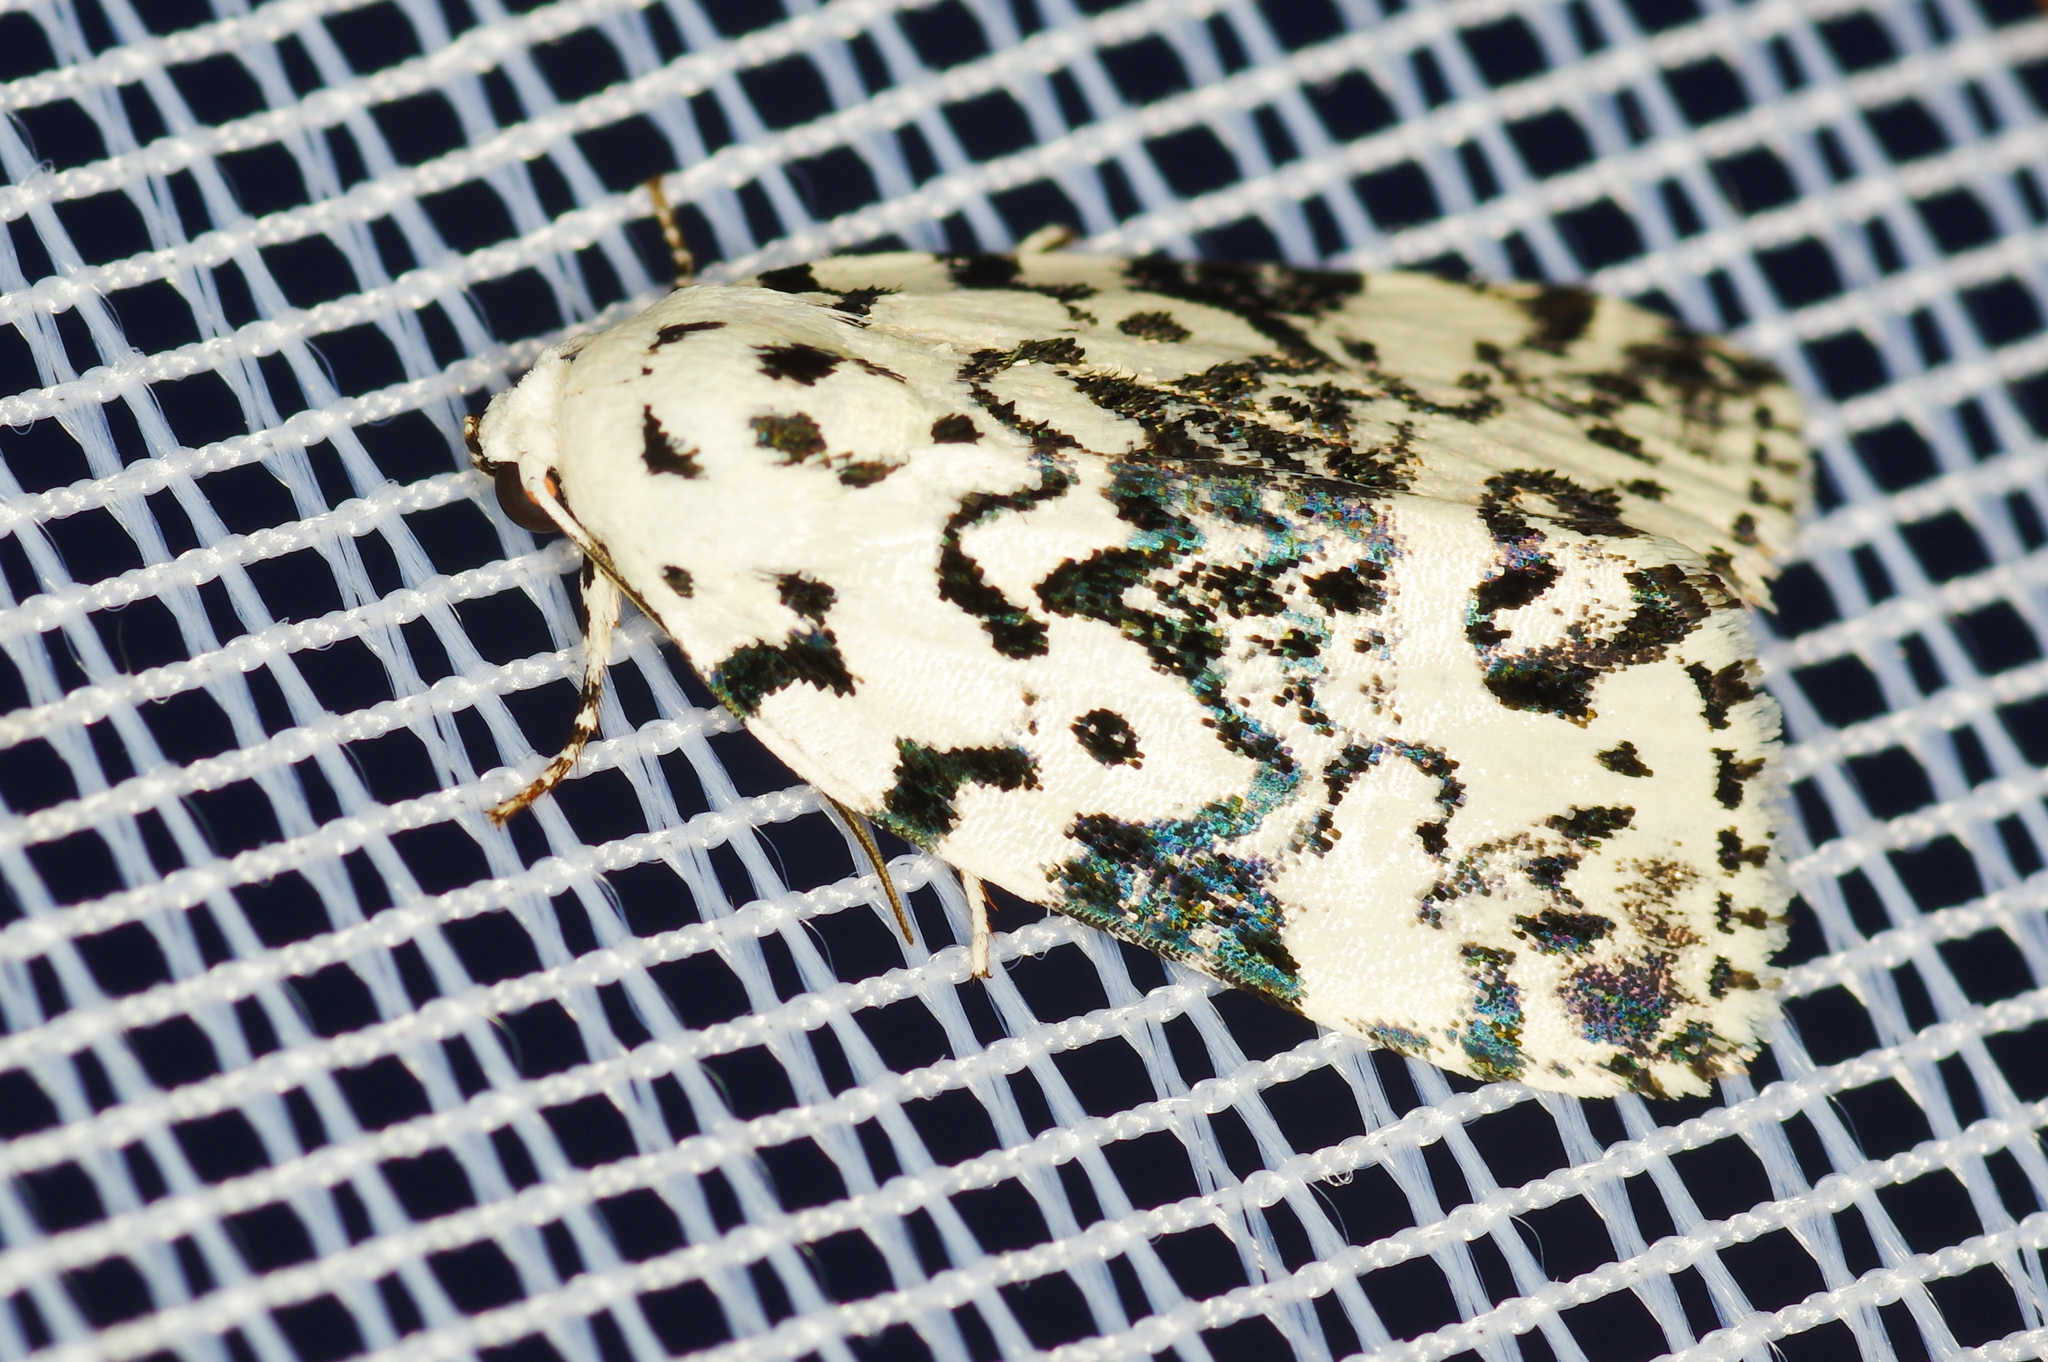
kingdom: Animalia
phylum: Arthropoda
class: Insecta
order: Lepidoptera
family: Noctuidae
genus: Polygrammate
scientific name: Polygrammate hebraeicum
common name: Hebrew moth
